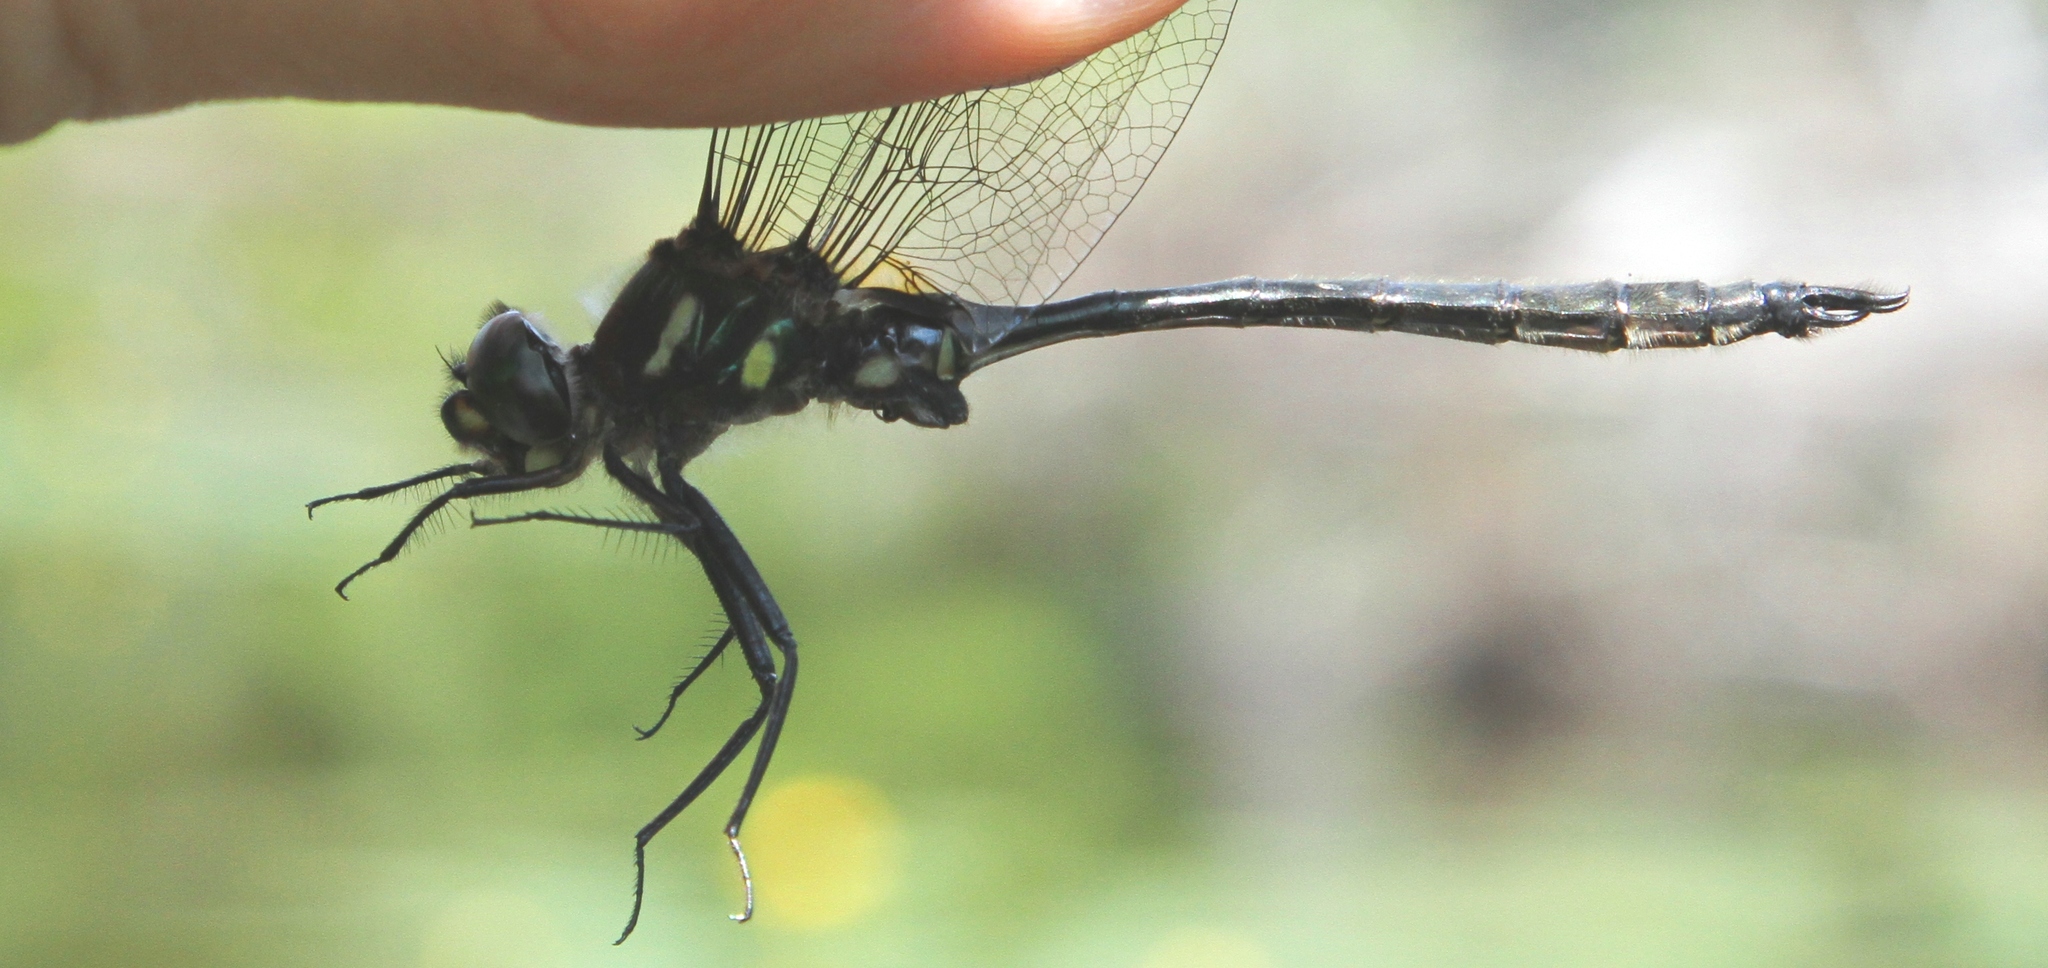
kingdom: Animalia
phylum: Arthropoda
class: Insecta
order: Odonata
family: Corduliidae
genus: Somatochlora
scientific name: Somatochlora elongata
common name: Ski-tipped emerald
